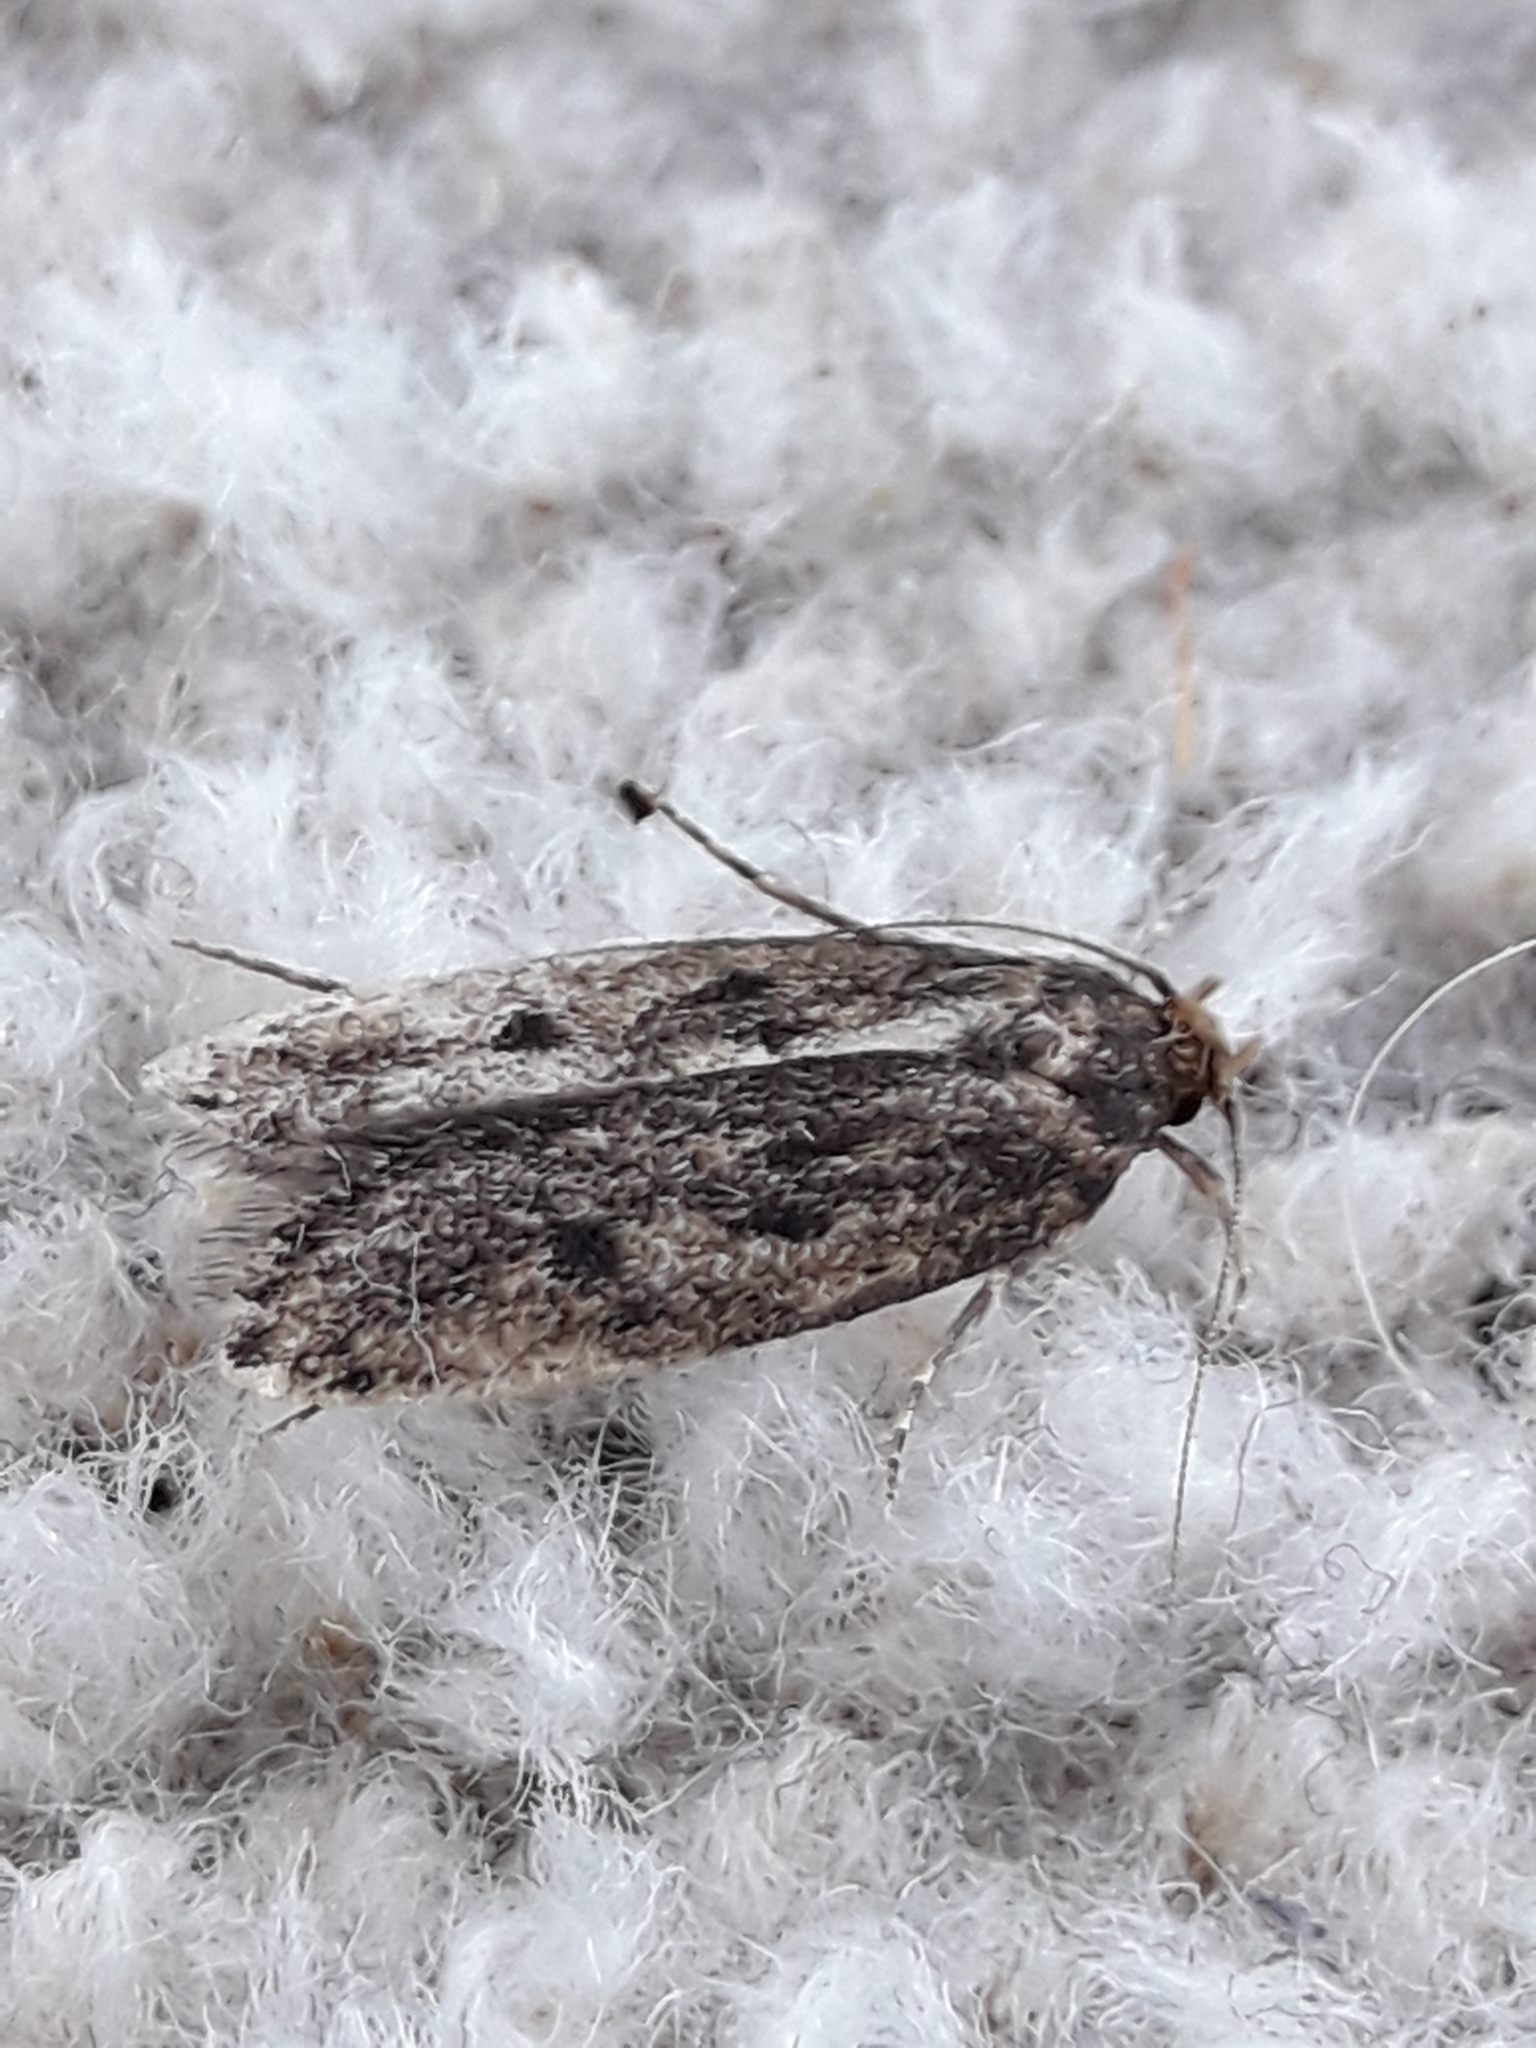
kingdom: Animalia
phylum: Arthropoda
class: Insecta
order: Lepidoptera
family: Oecophoridae
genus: Hofmannophila
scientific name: Hofmannophila pseudospretella
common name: Brown house moth
